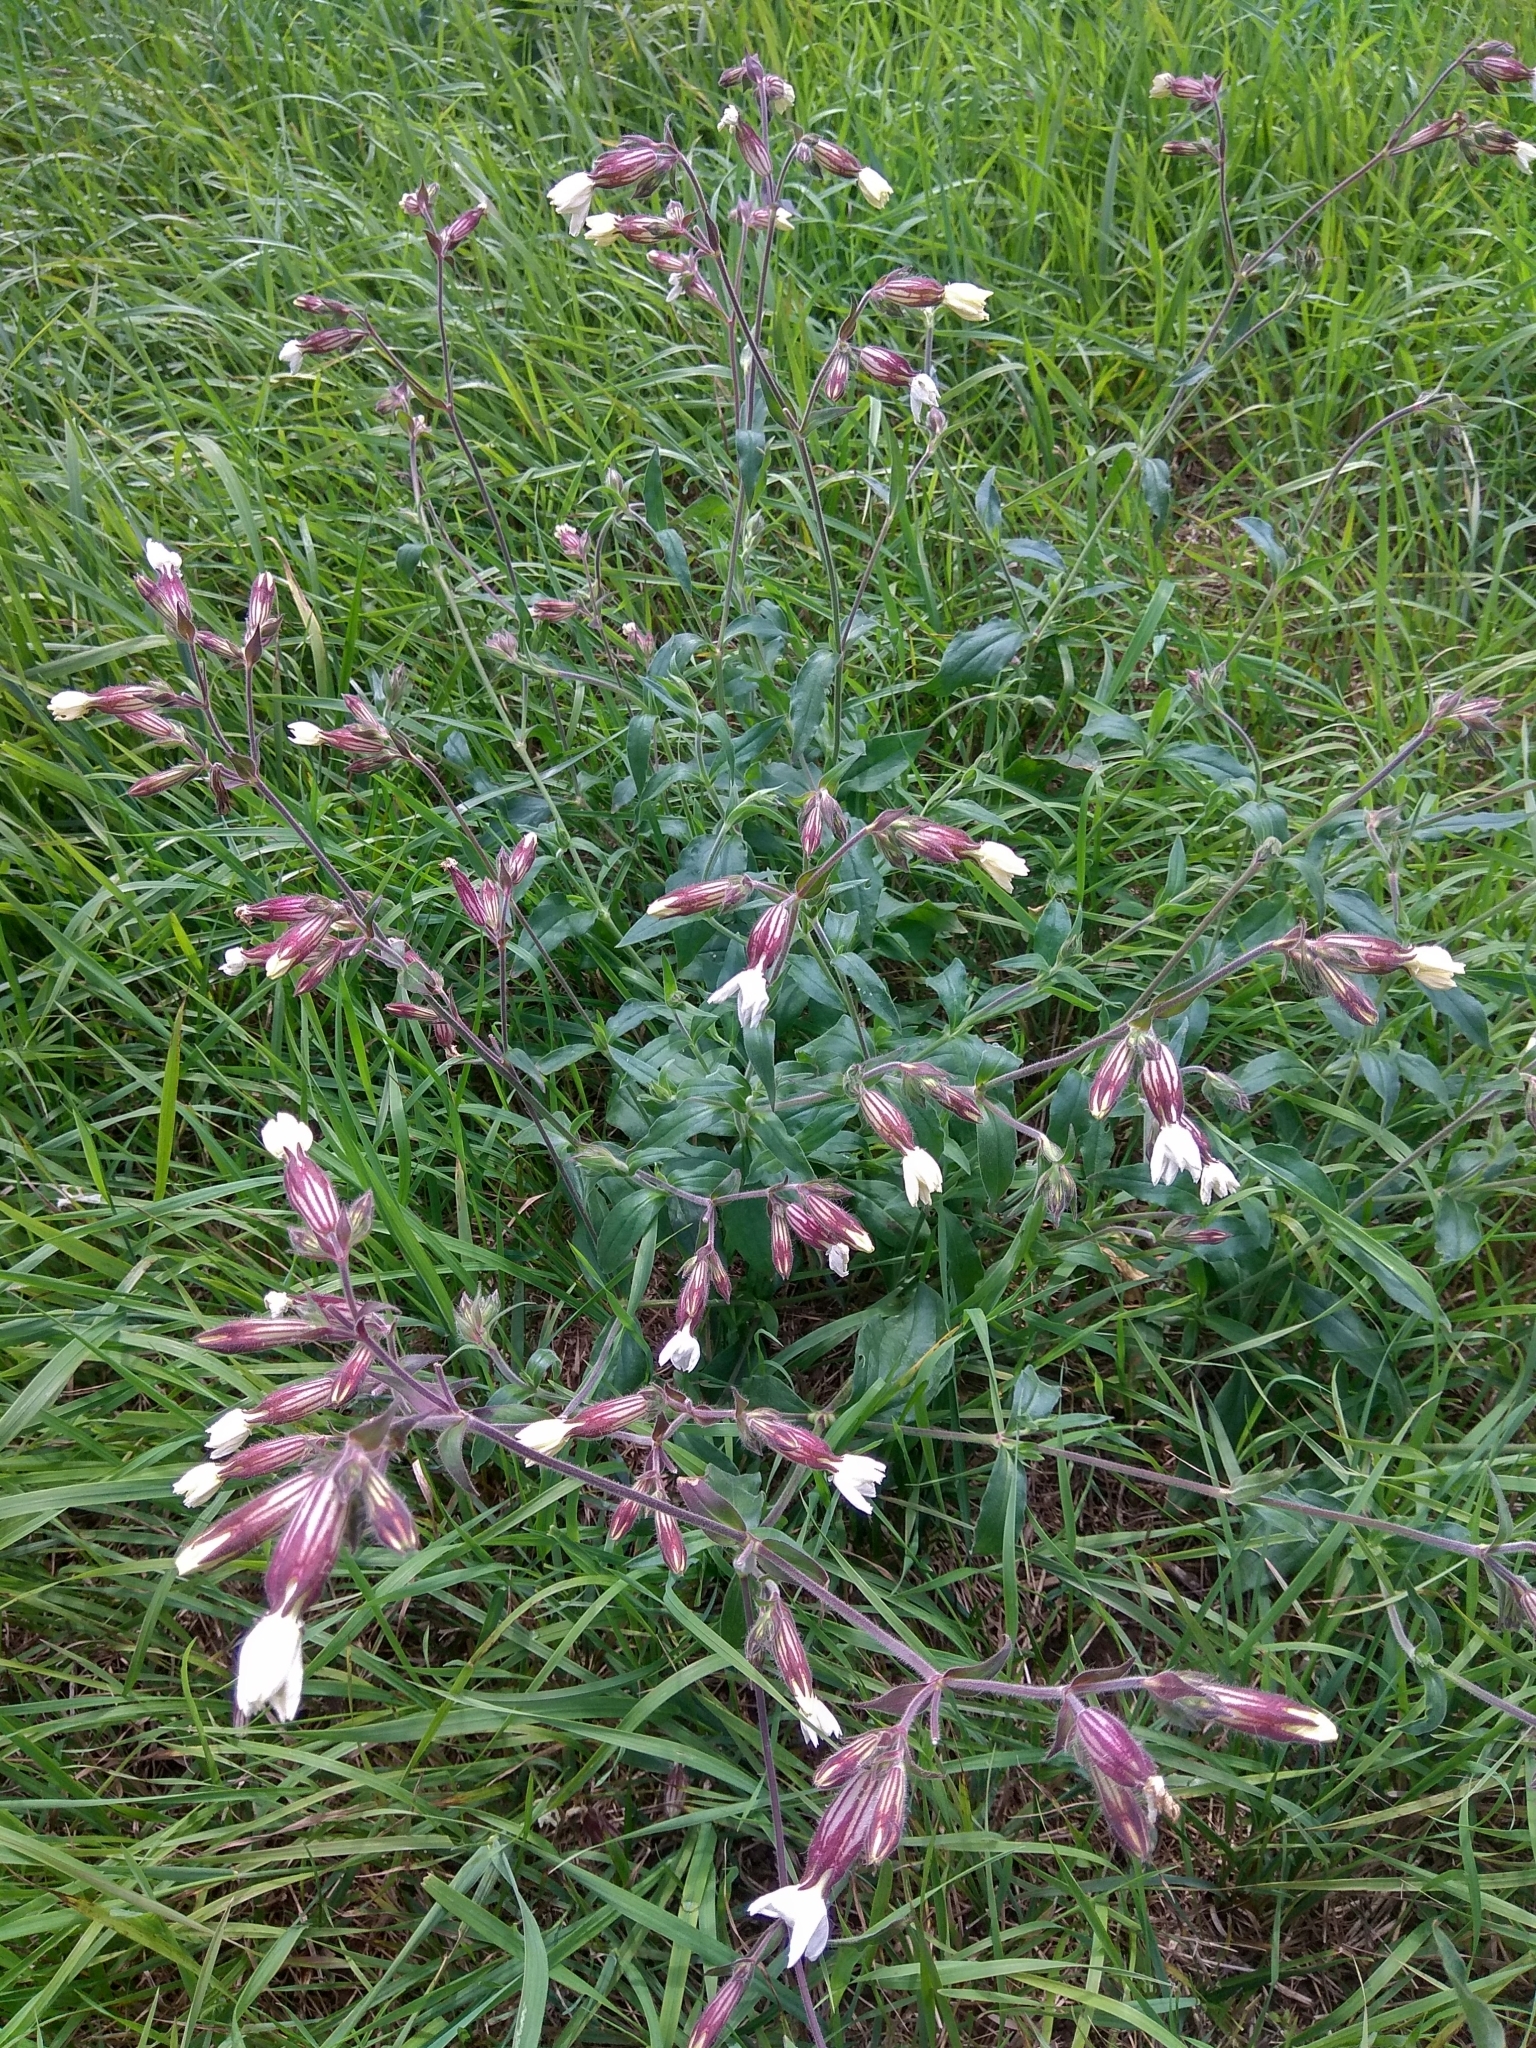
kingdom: Plantae
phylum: Tracheophyta
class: Magnoliopsida
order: Caryophyllales
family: Caryophyllaceae
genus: Silene
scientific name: Silene latifolia
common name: White campion
